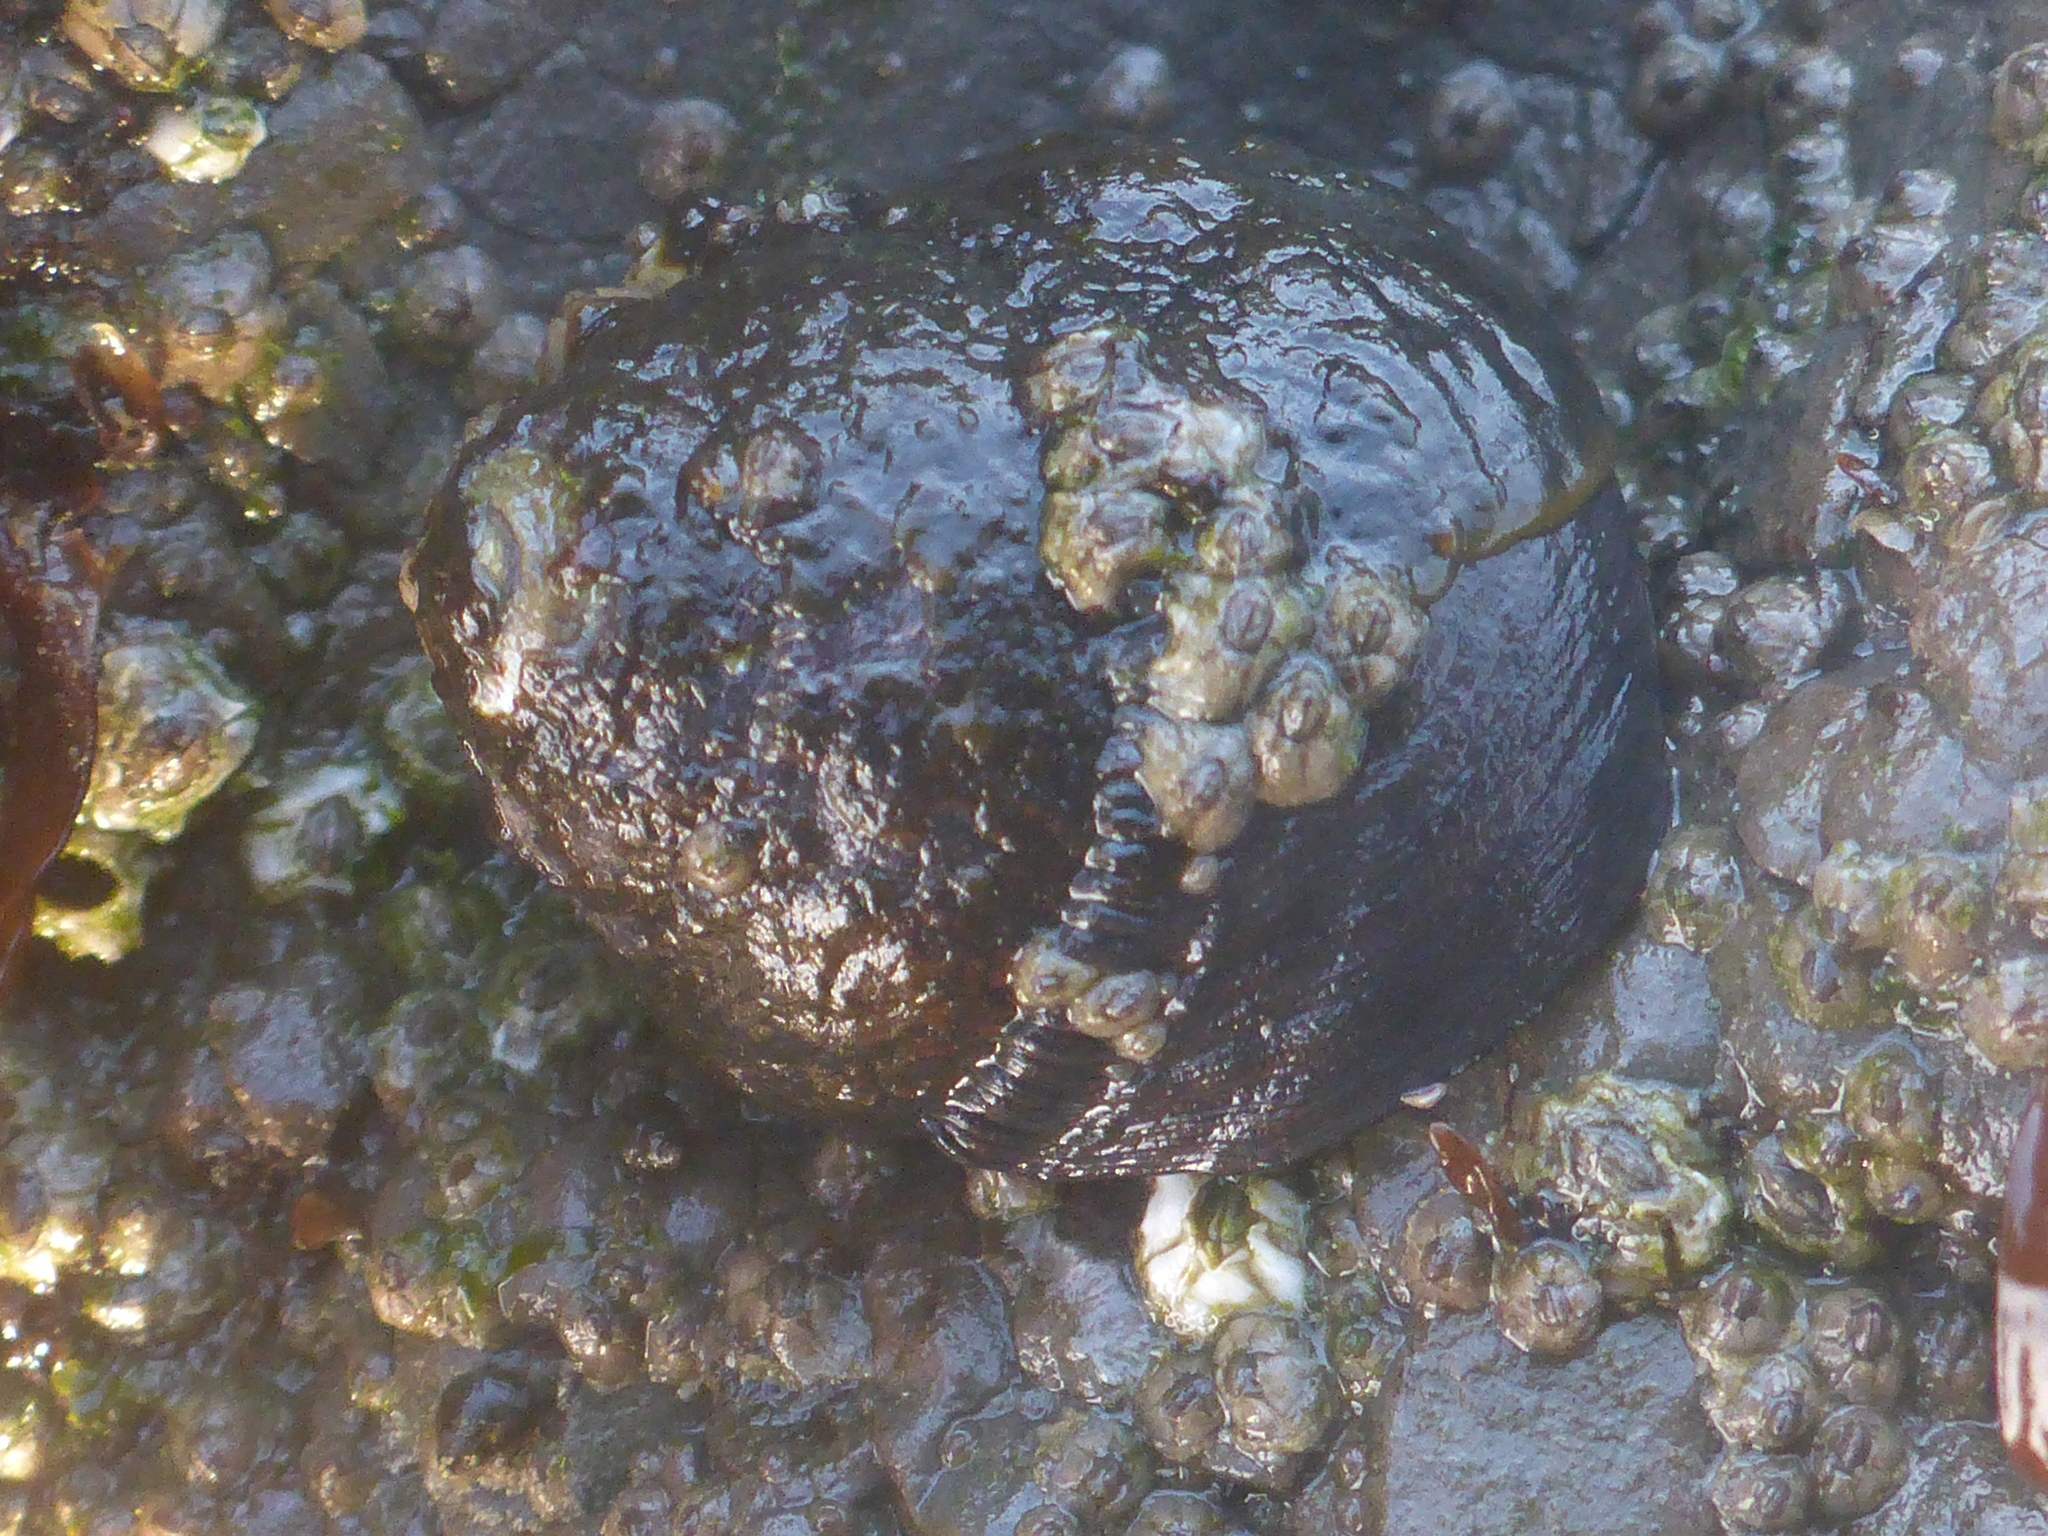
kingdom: Animalia
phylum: Mollusca
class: Gastropoda
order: Trochida
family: Tegulidae
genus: Tegula
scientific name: Tegula funebralis
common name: Black tegula
